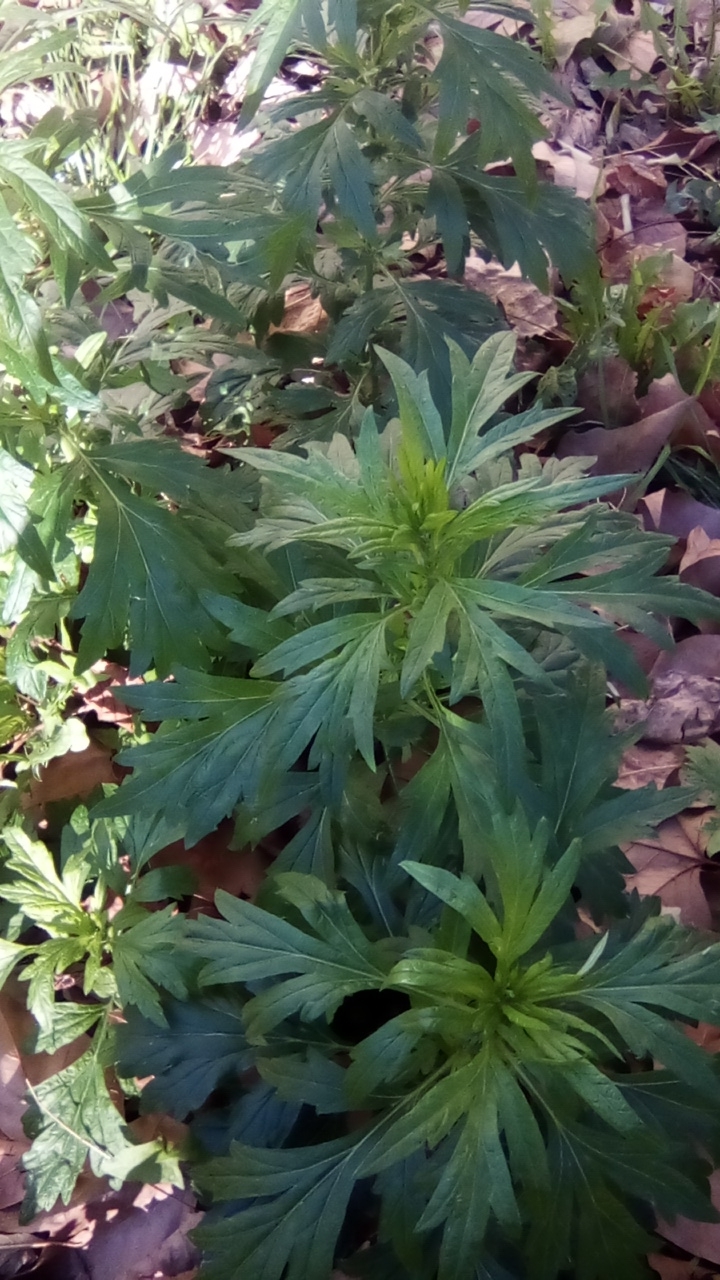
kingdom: Plantae
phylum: Tracheophyta
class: Magnoliopsida
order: Asterales
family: Asteraceae
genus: Artemisia
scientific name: Artemisia vulgaris
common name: Mugwort
